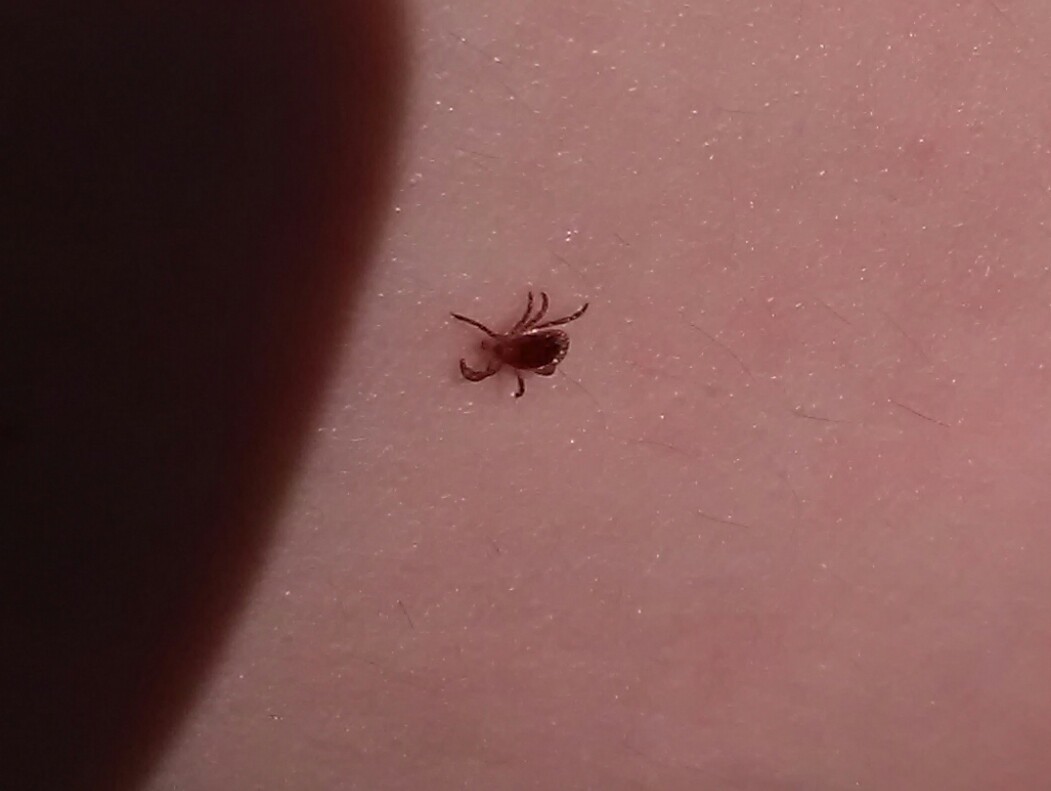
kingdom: Animalia
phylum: Arthropoda
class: Arachnida
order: Ixodida
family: Ixodidae
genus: Amblyomma
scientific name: Amblyomma americanum
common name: Lone star tick
